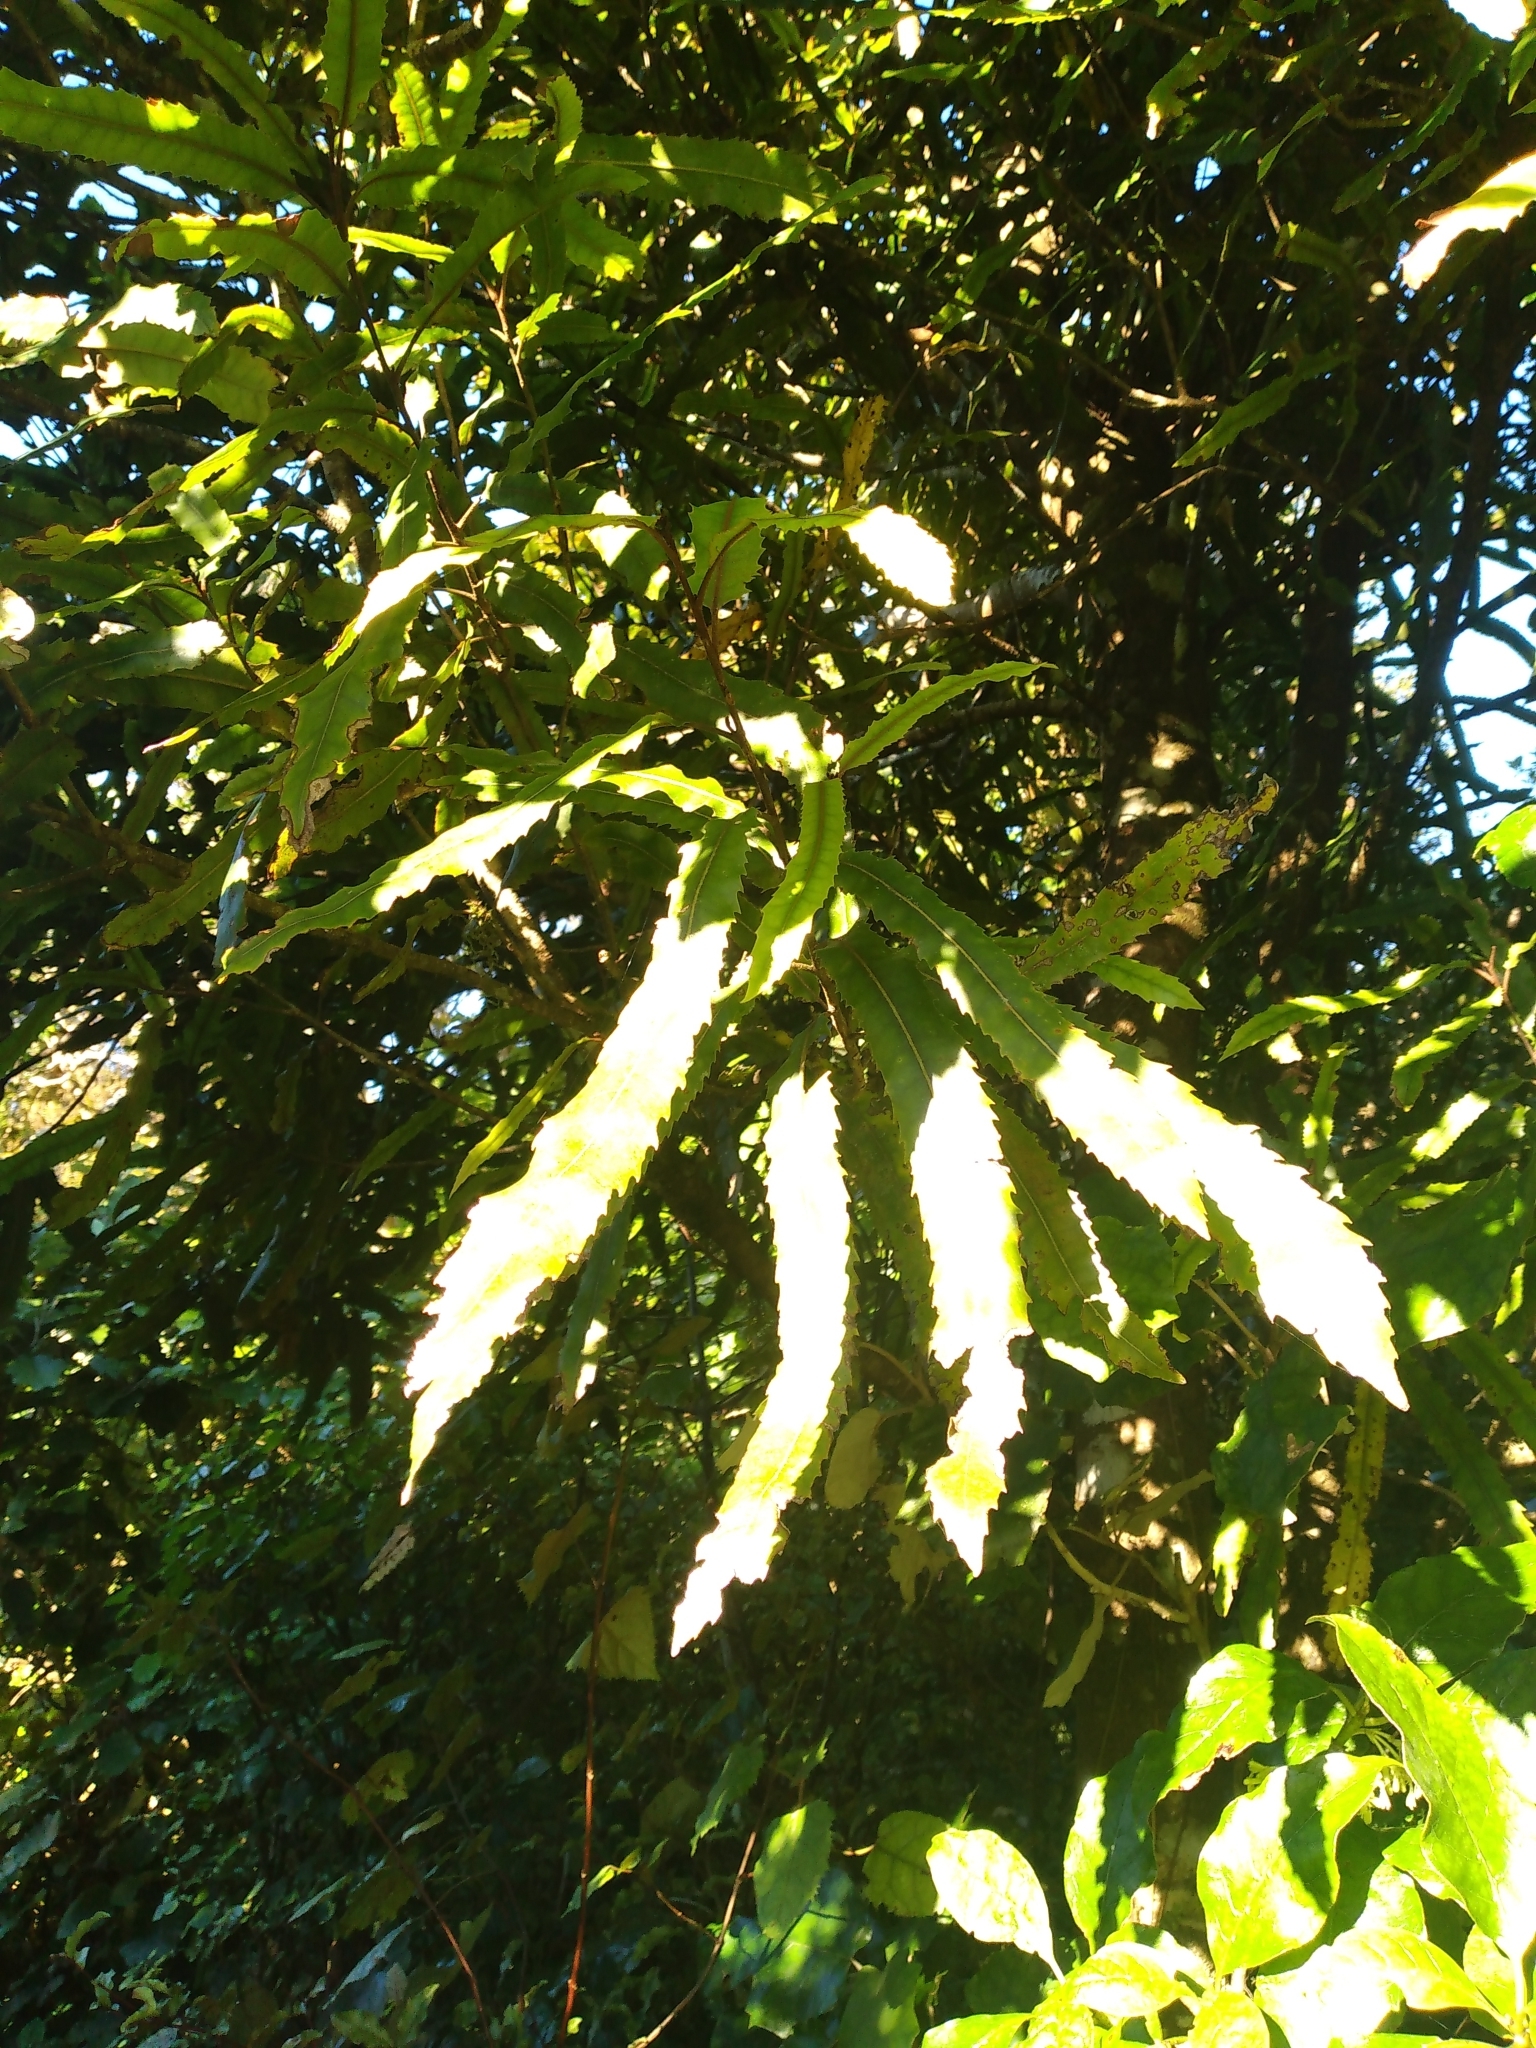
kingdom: Plantae
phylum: Tracheophyta
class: Magnoliopsida
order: Proteales
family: Proteaceae
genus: Knightia
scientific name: Knightia excelsa
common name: New zealand-honeysuckle
